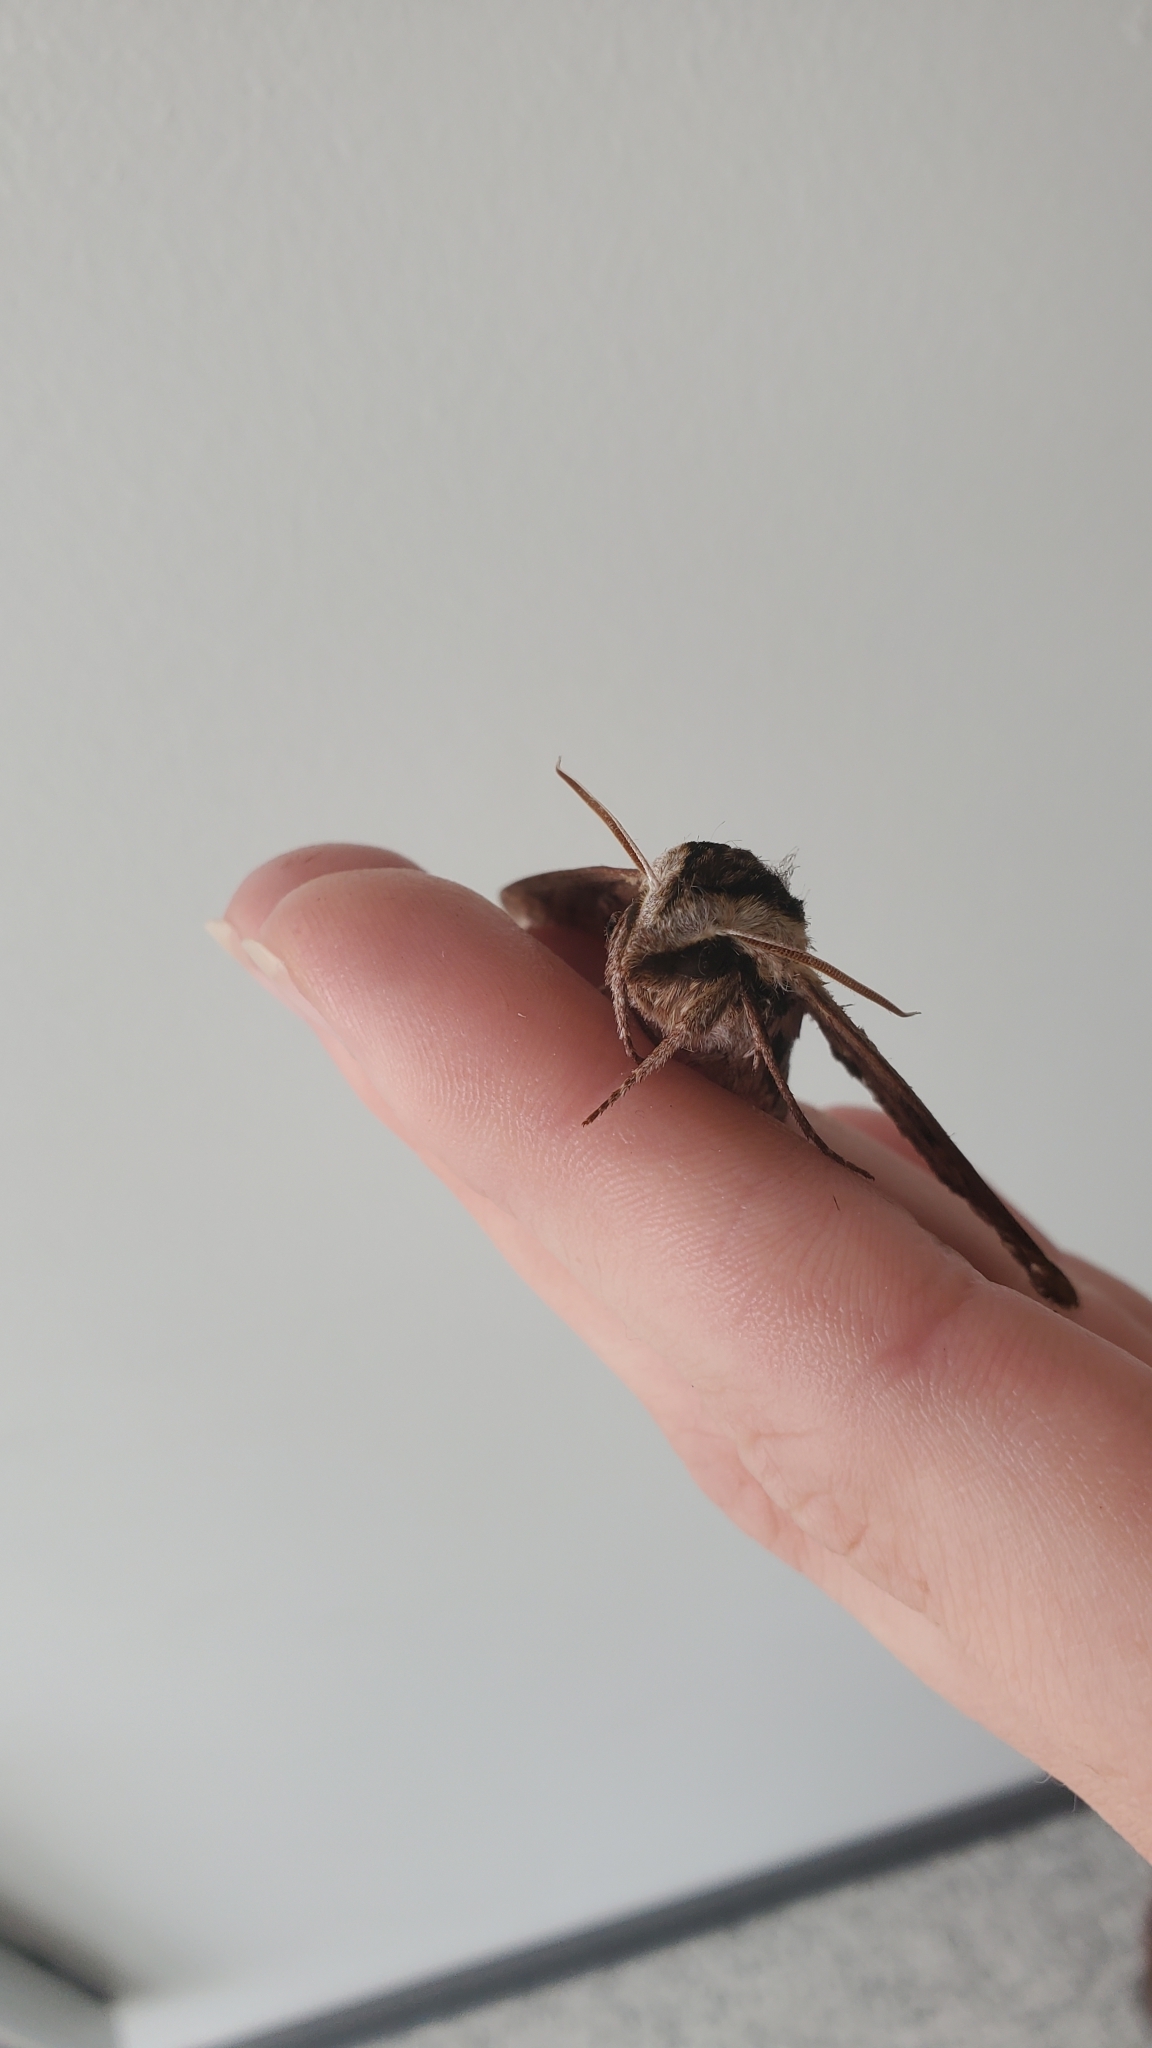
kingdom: Animalia
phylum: Arthropoda
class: Insecta
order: Lepidoptera
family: Sphingidae
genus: Sphinx
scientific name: Sphinx kalmiae
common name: Laurel sphinx
